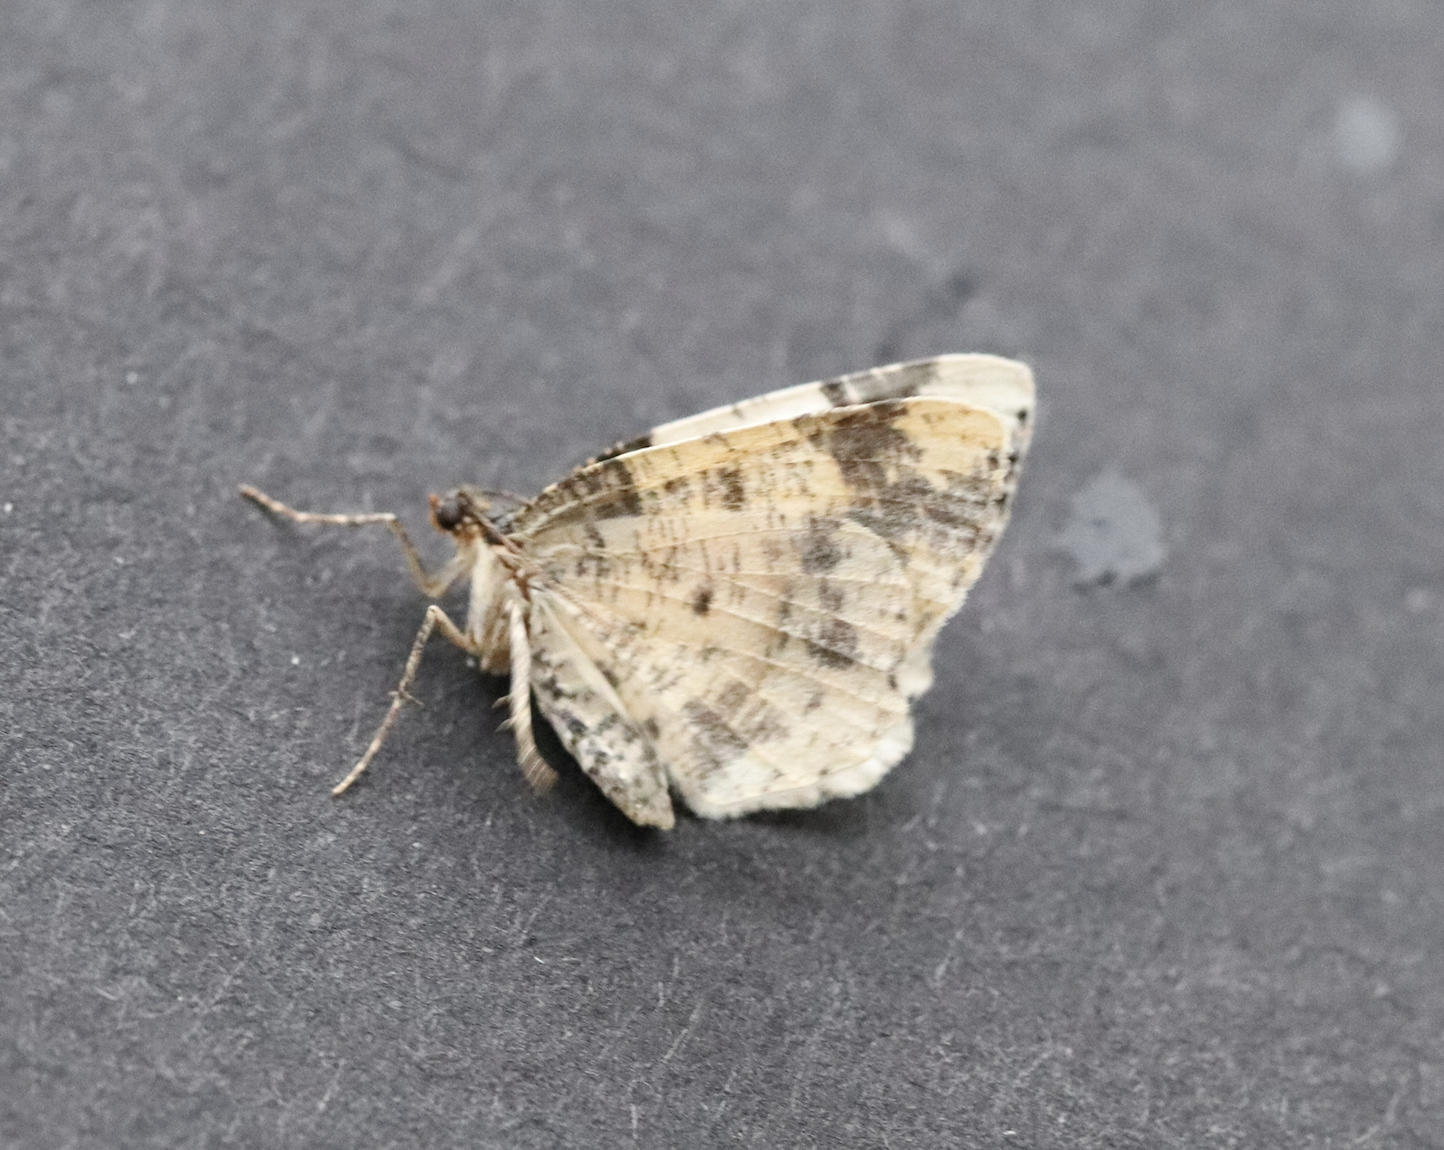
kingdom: Animalia
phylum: Arthropoda
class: Insecta
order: Lepidoptera
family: Geometridae
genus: Ligdia
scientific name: Ligdia adustata
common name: Scorched carpet
